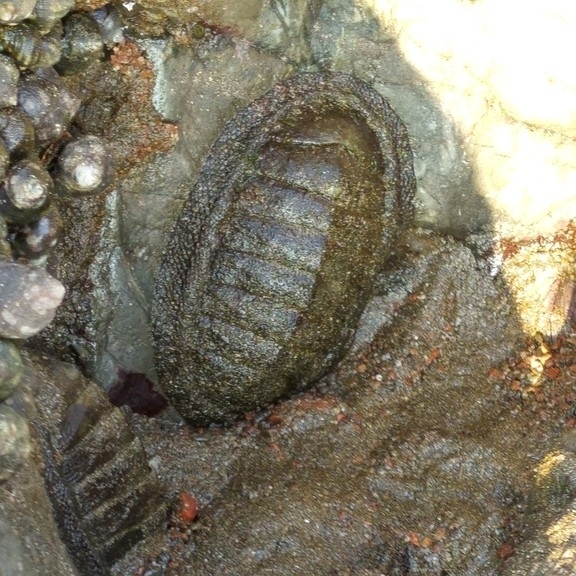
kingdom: Animalia
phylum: Mollusca
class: Polyplacophora
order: Chitonida
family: Chitonidae
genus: Chiton
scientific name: Chiton stokesii
